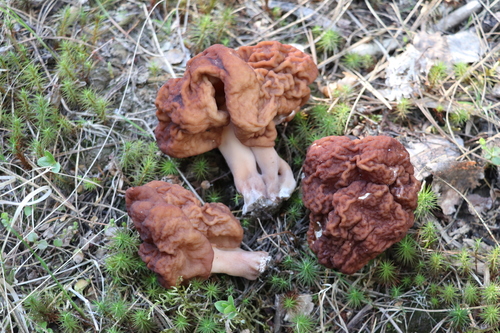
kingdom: Fungi
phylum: Ascomycota
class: Pezizomycetes
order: Pezizales
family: Discinaceae
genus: Gyromitra
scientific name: Gyromitra esculenta
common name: False morel
